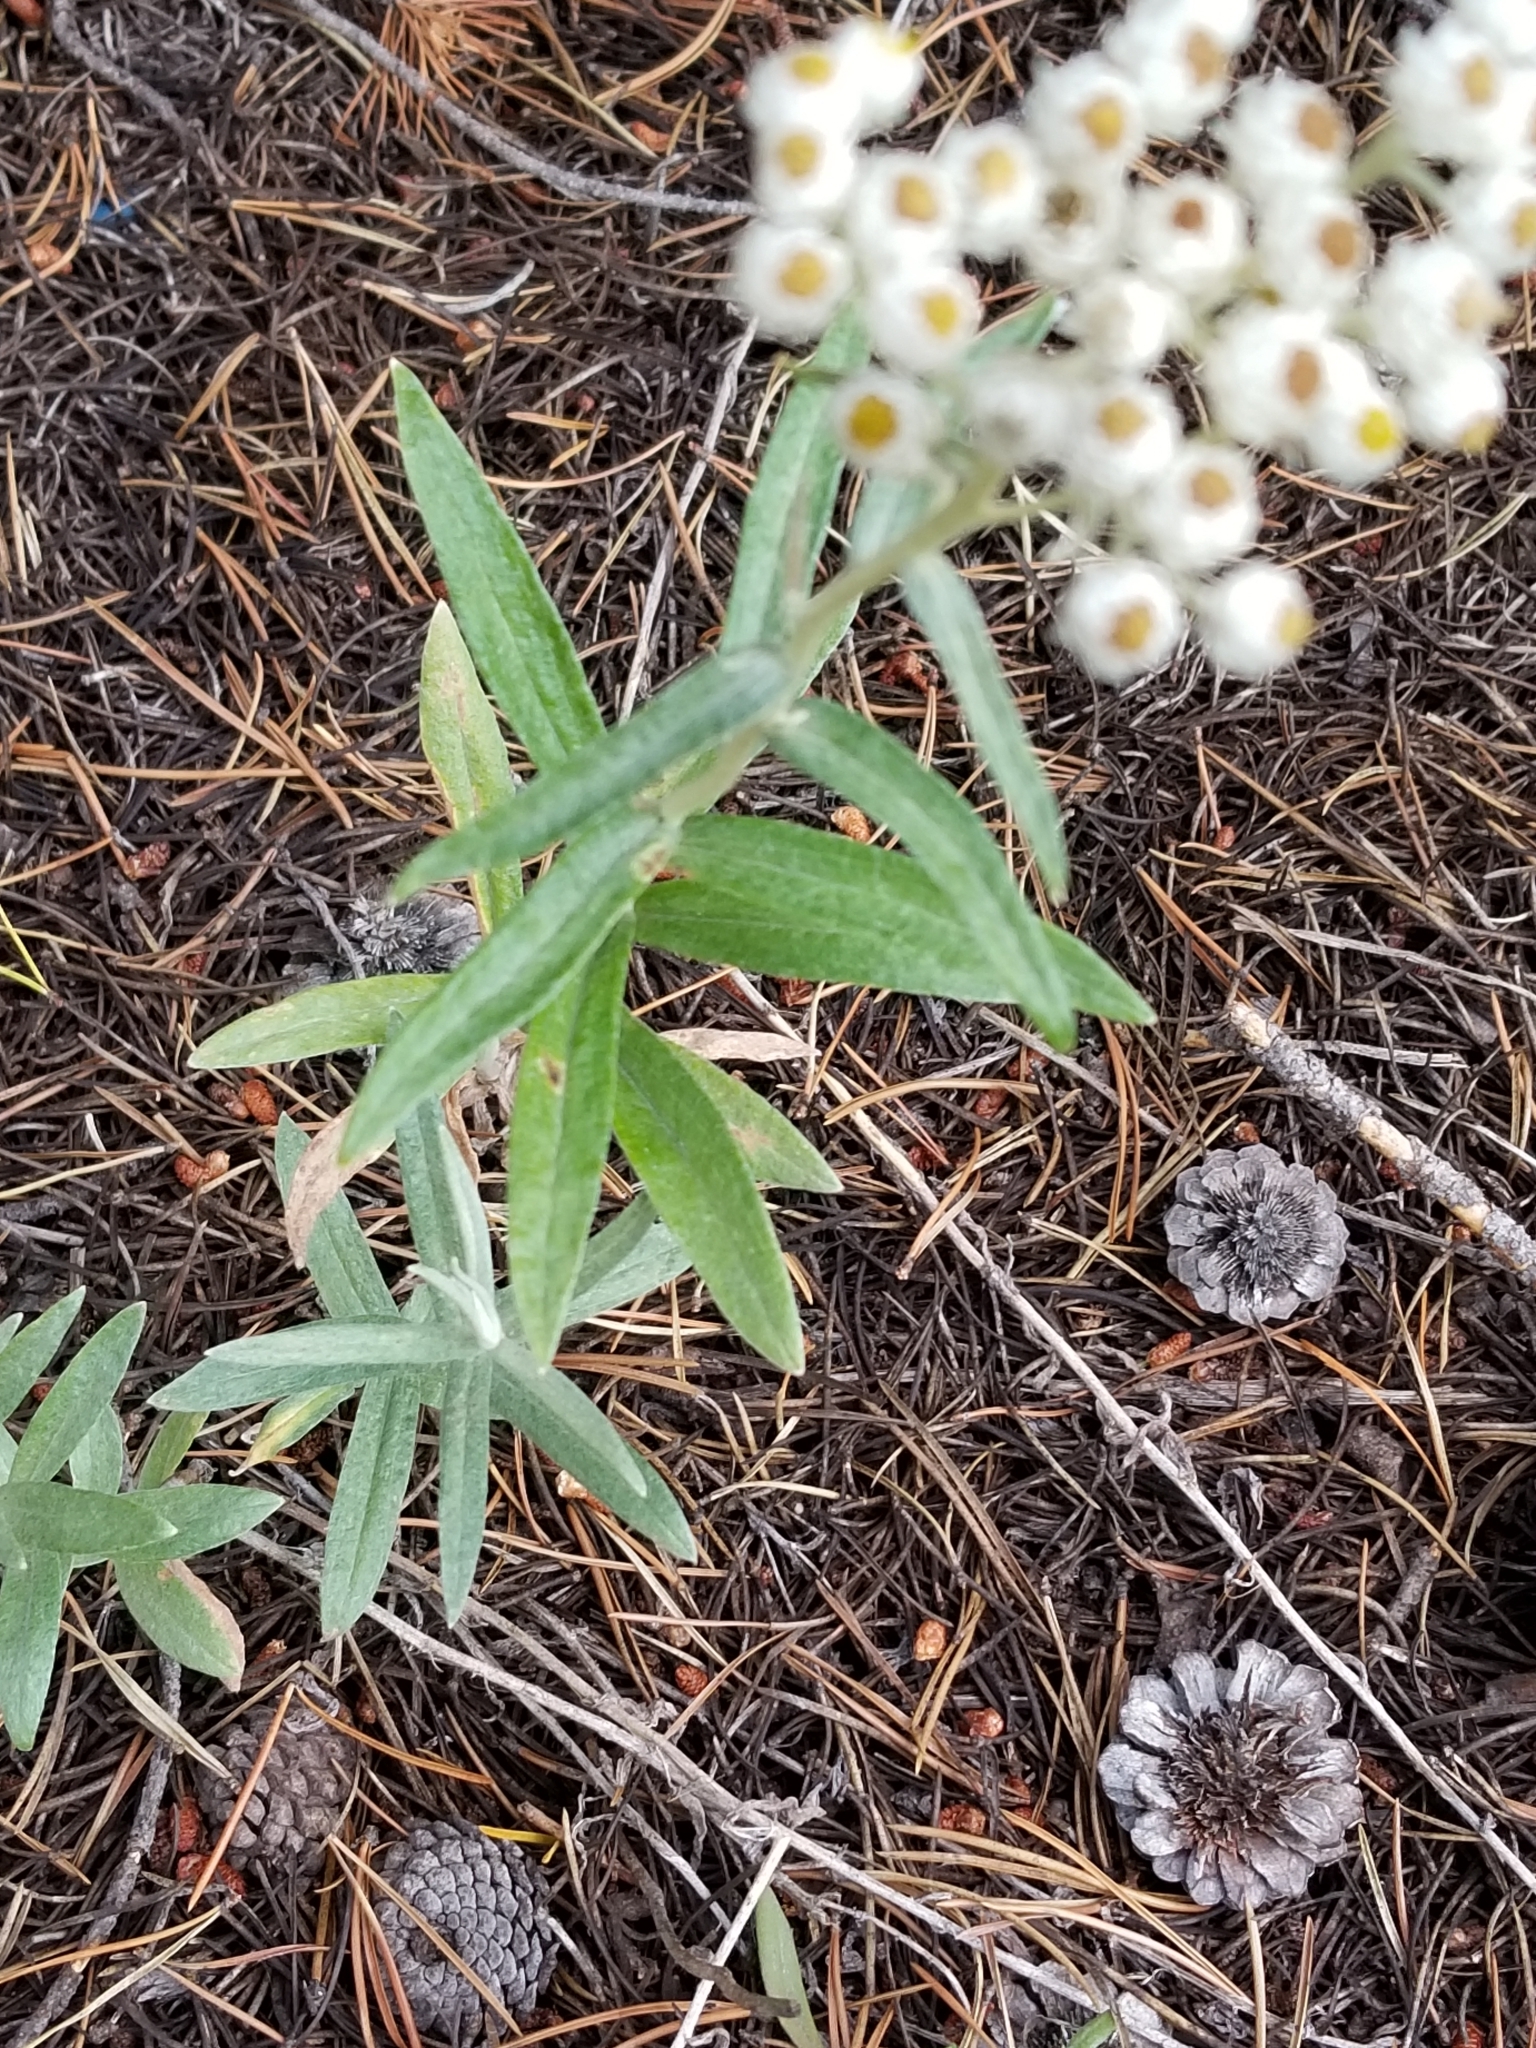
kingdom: Plantae
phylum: Tracheophyta
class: Magnoliopsida
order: Asterales
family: Asteraceae
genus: Anaphalis
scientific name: Anaphalis margaritacea
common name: Pearly everlasting
